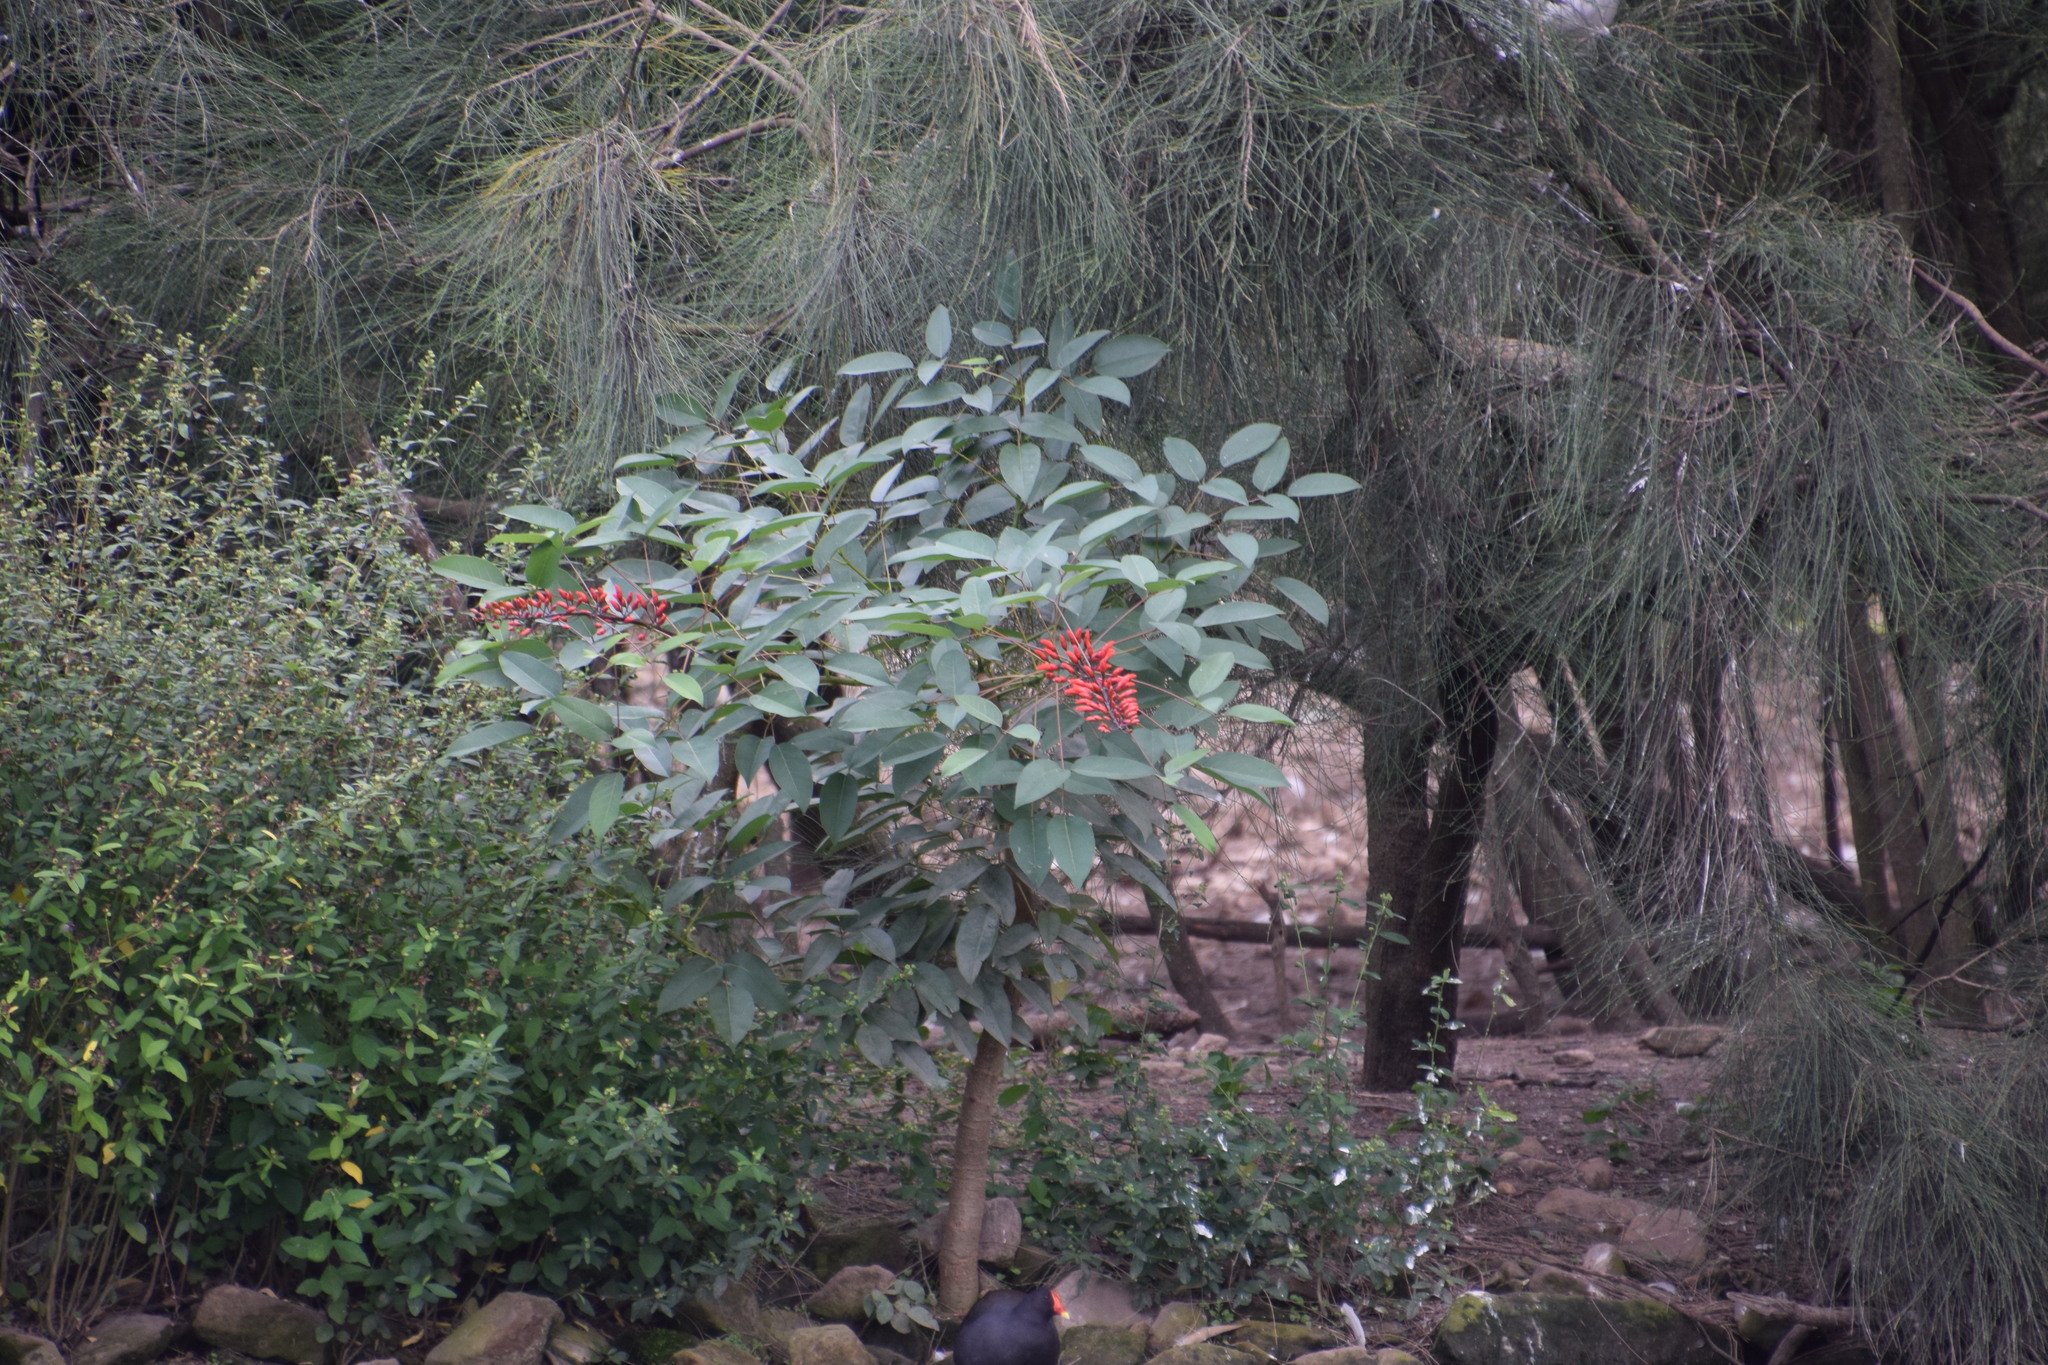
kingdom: Plantae
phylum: Tracheophyta
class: Magnoliopsida
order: Fabales
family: Fabaceae
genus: Erythrina
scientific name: Erythrina crista-galli
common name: Cockspur coral tree
